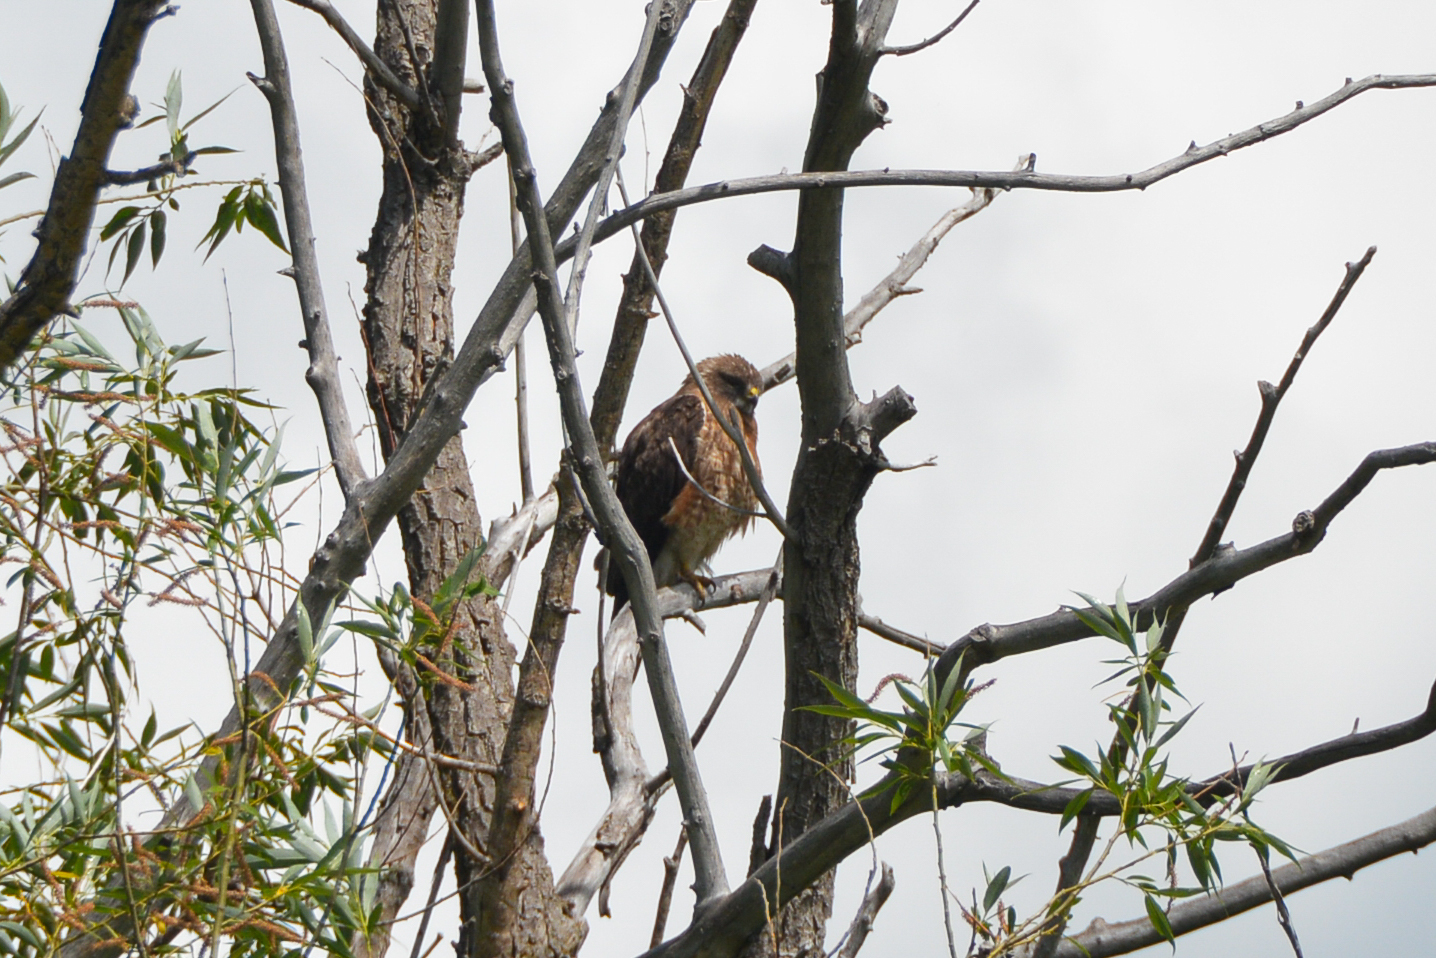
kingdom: Animalia
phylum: Chordata
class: Aves
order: Accipitriformes
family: Accipitridae
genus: Buteo
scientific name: Buteo swainsoni
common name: Swainson's hawk
